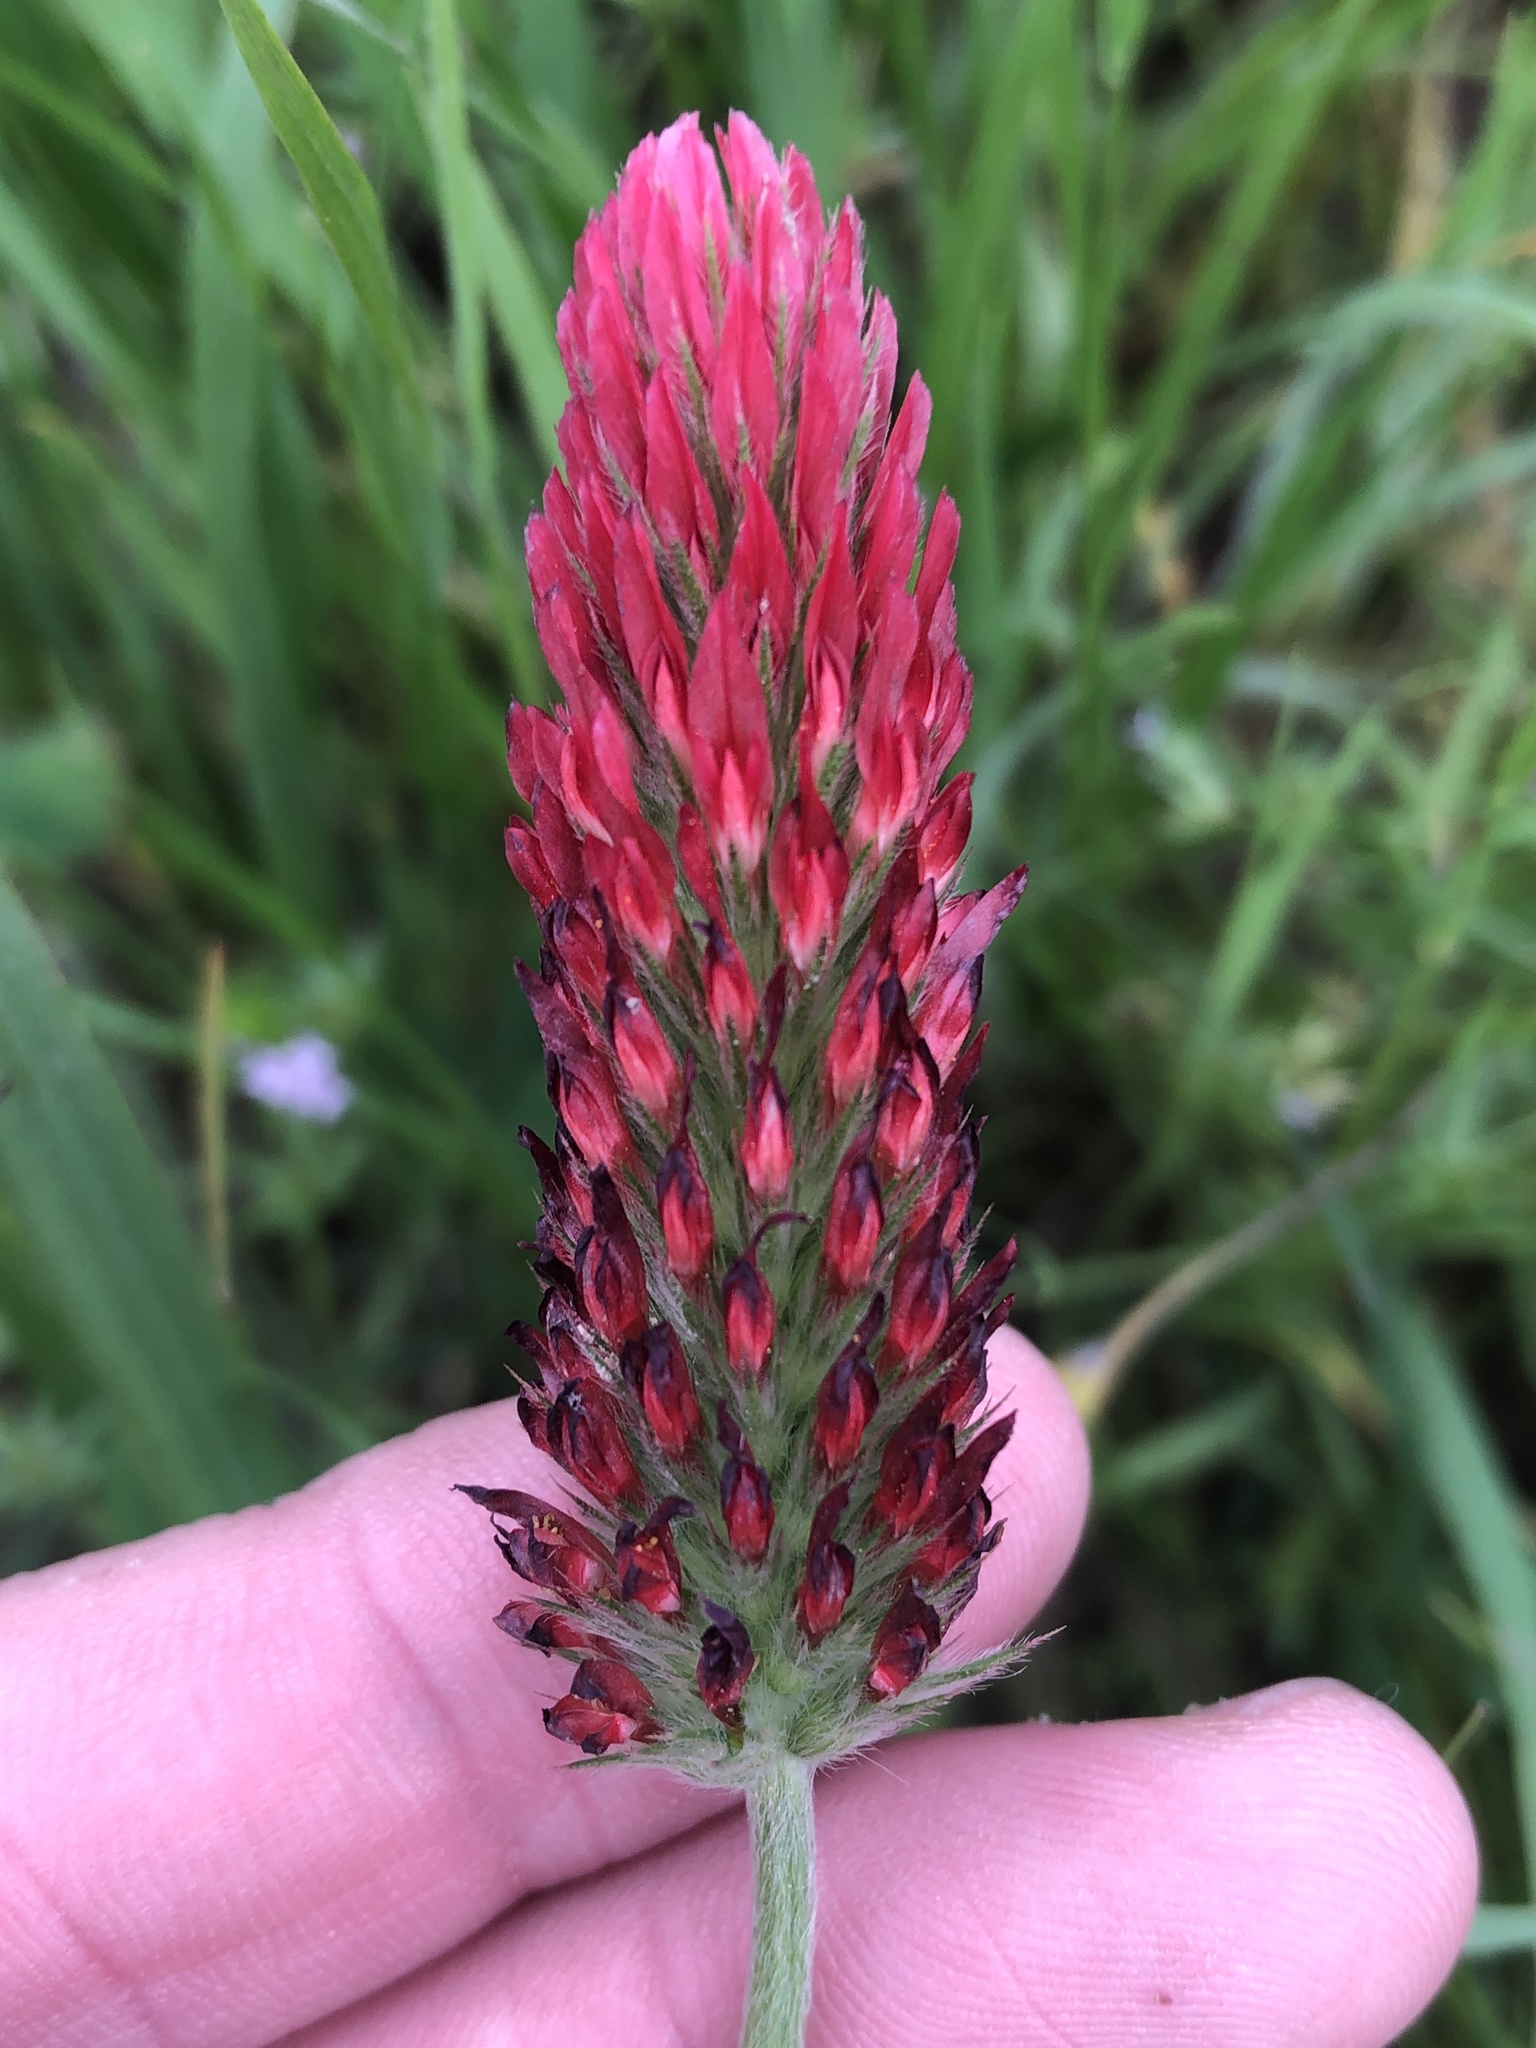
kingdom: Plantae
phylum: Tracheophyta
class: Magnoliopsida
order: Fabales
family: Fabaceae
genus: Trifolium
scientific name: Trifolium incarnatum
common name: Crimson clover
